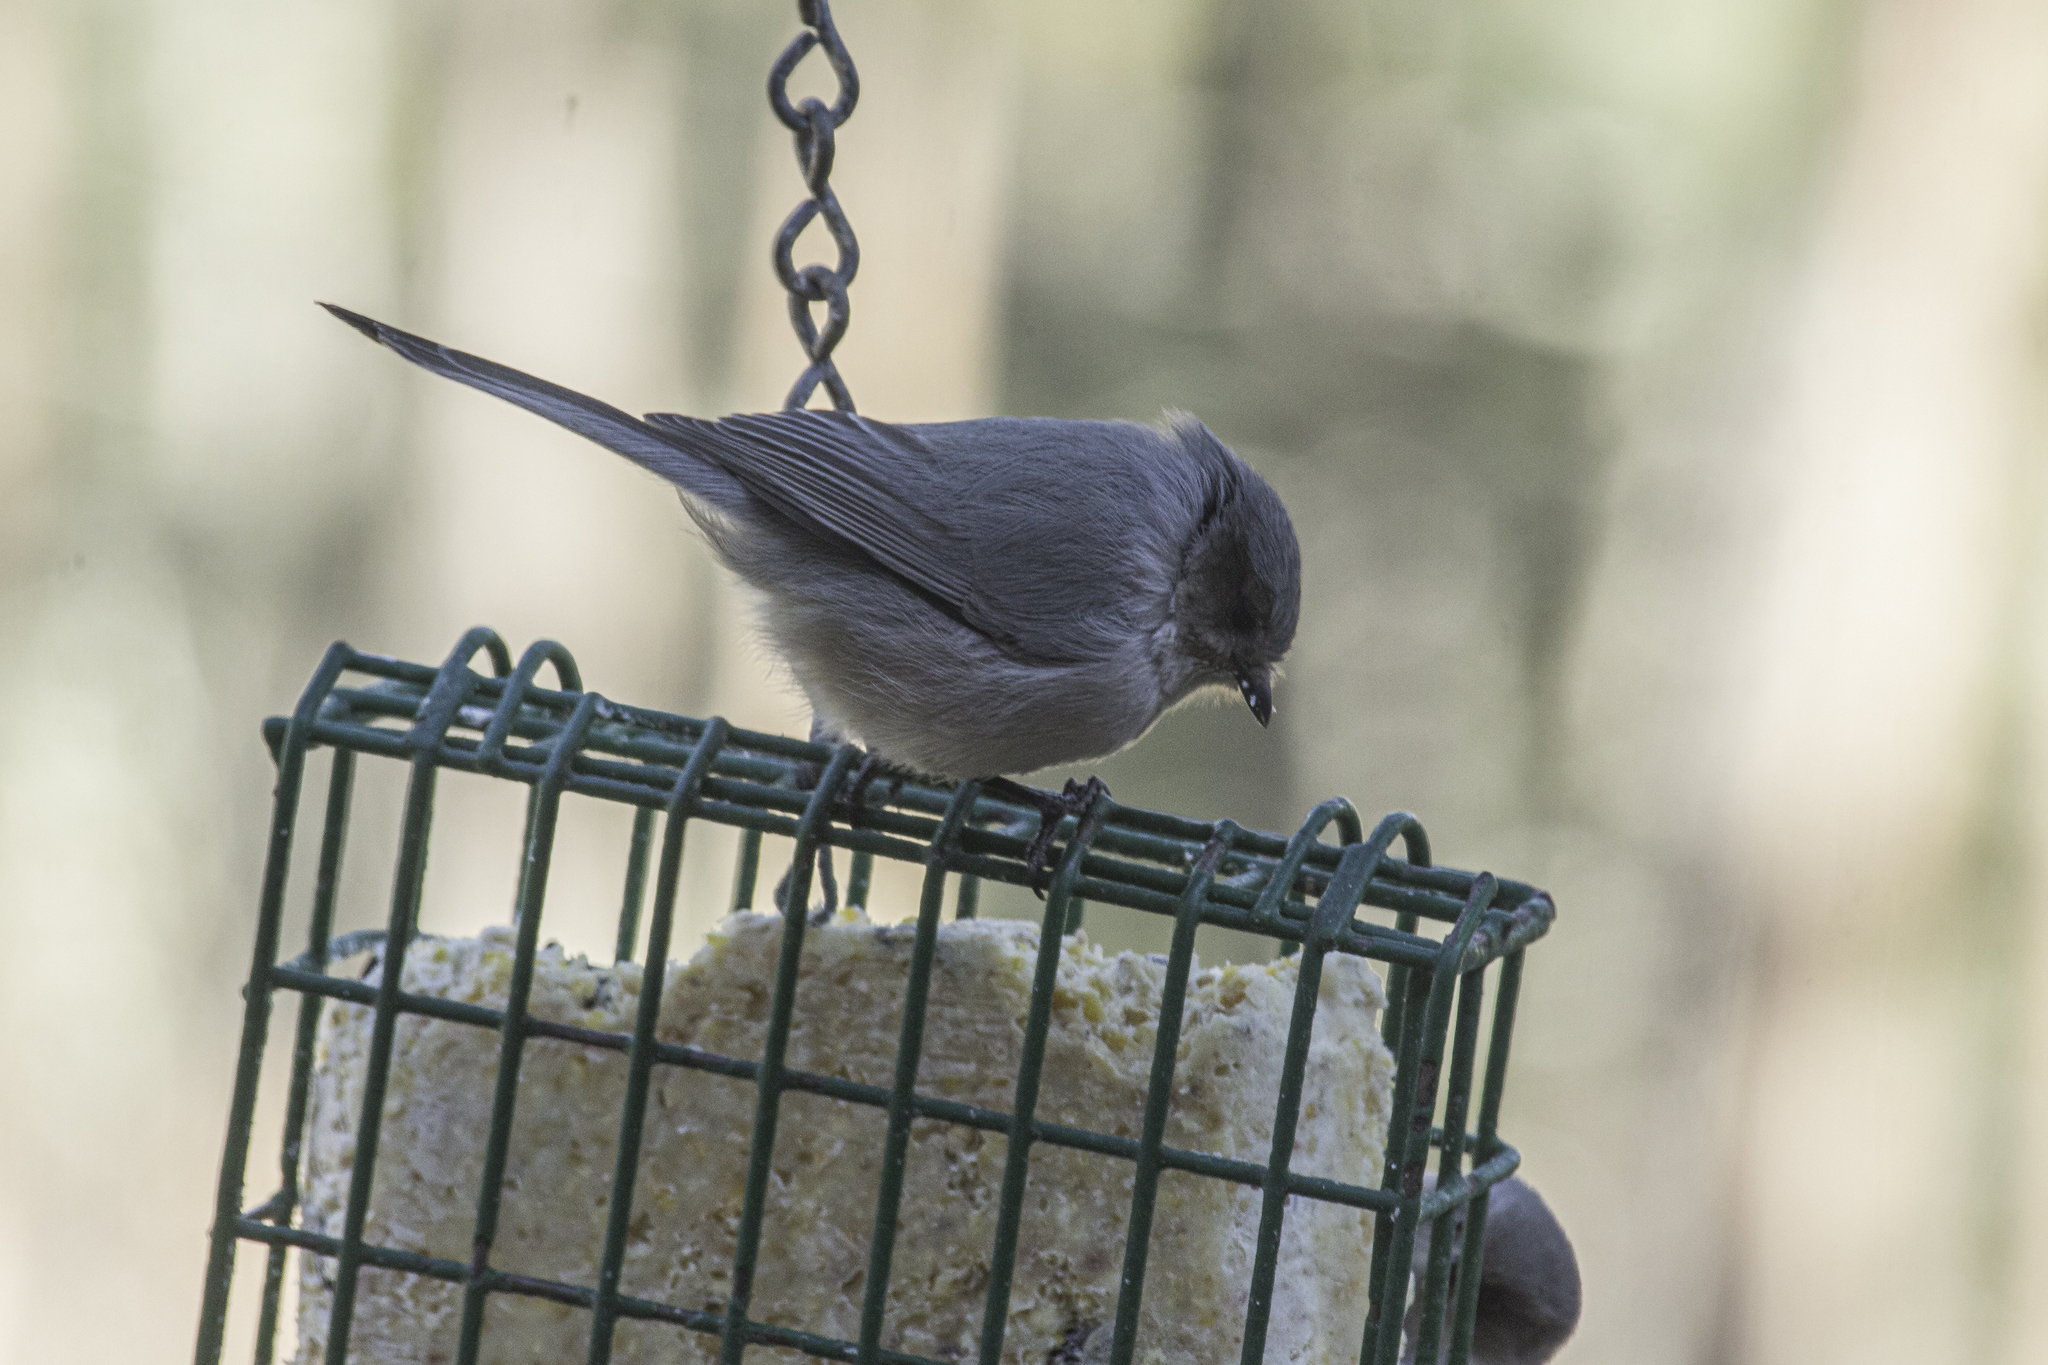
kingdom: Animalia
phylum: Chordata
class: Aves
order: Passeriformes
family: Aegithalidae
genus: Psaltriparus
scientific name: Psaltriparus minimus
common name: American bushtit
